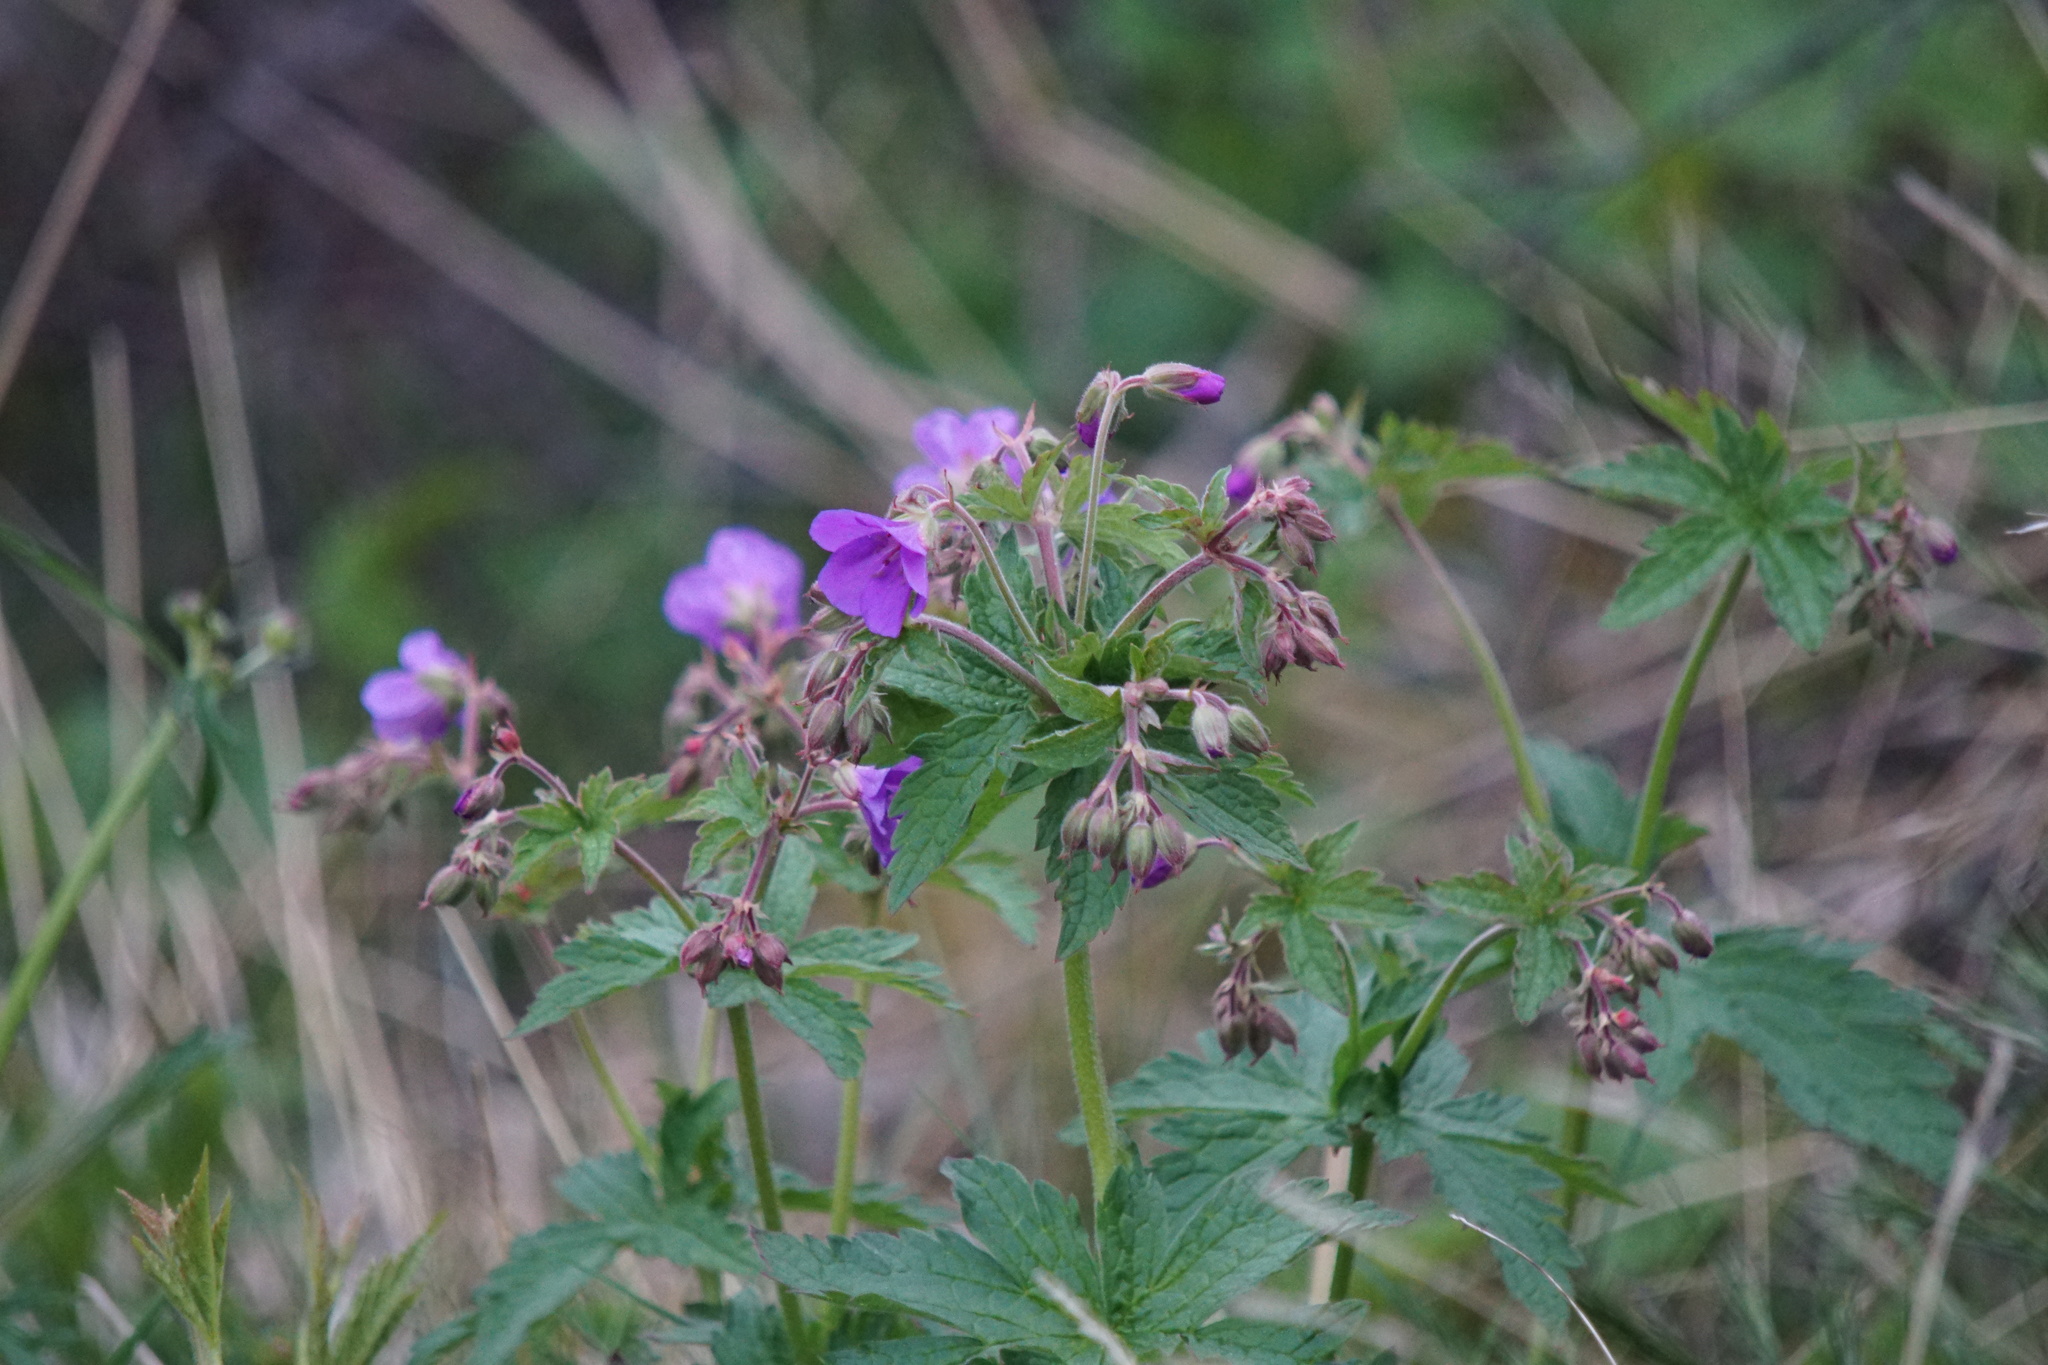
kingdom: Plantae
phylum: Tracheophyta
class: Magnoliopsida
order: Geraniales
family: Geraniaceae
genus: Geranium
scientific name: Geranium sylvaticum
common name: Wood crane's-bill
